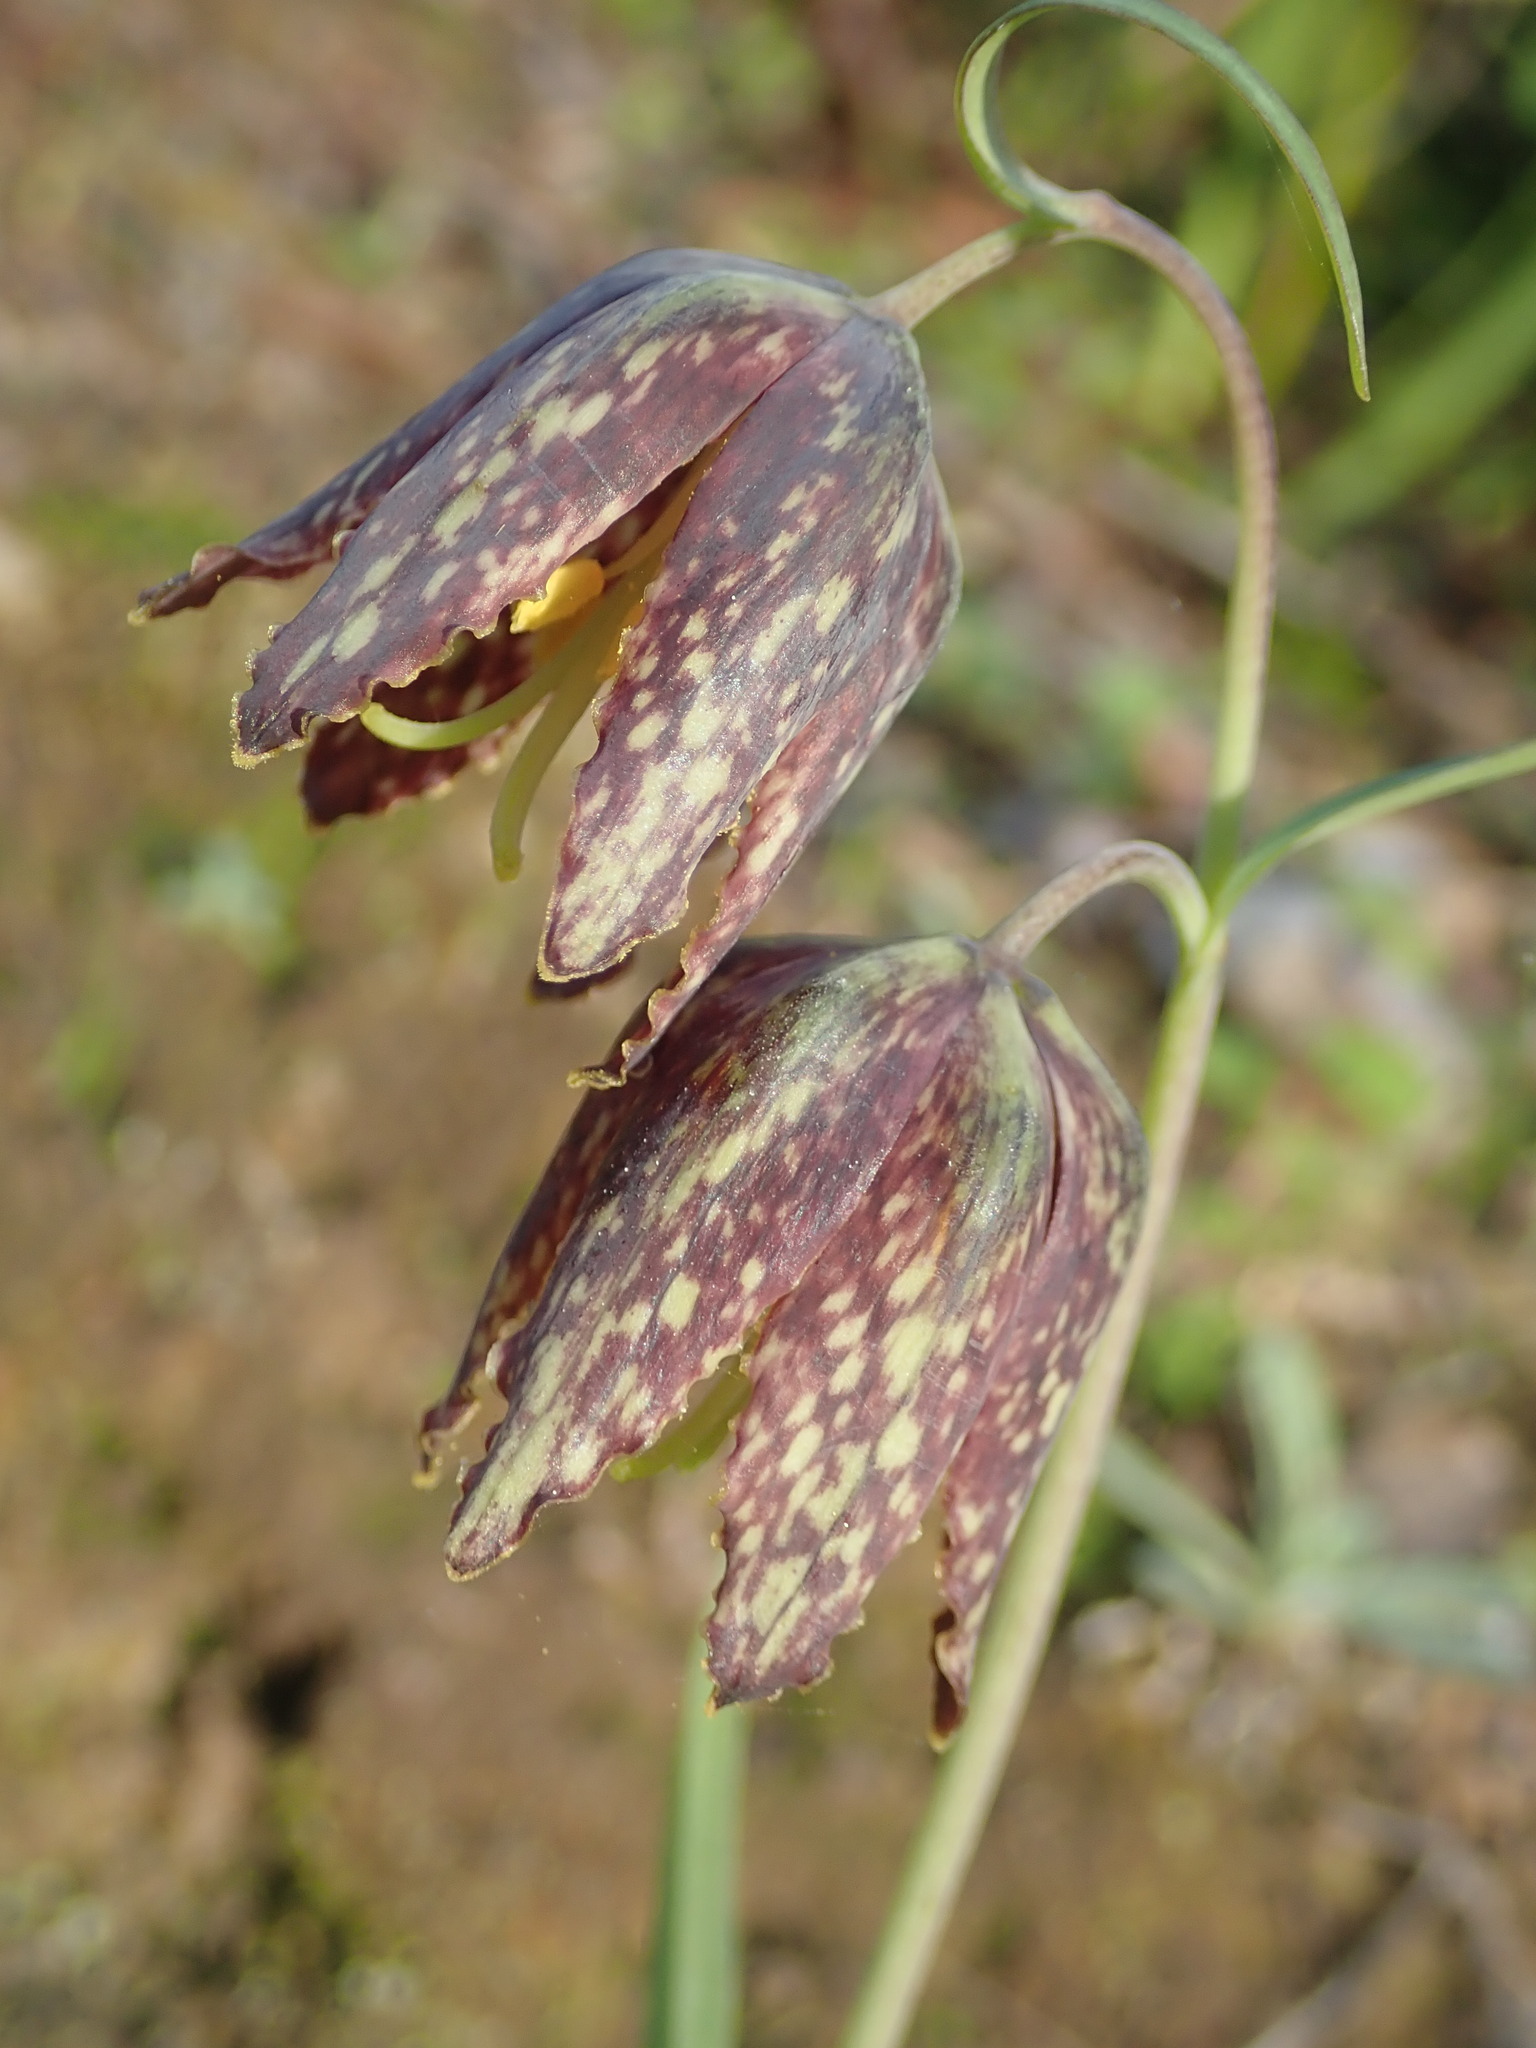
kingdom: Plantae
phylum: Tracheophyta
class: Liliopsida
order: Liliales
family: Liliaceae
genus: Fritillaria
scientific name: Fritillaria affinis
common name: Ojai fritillary
